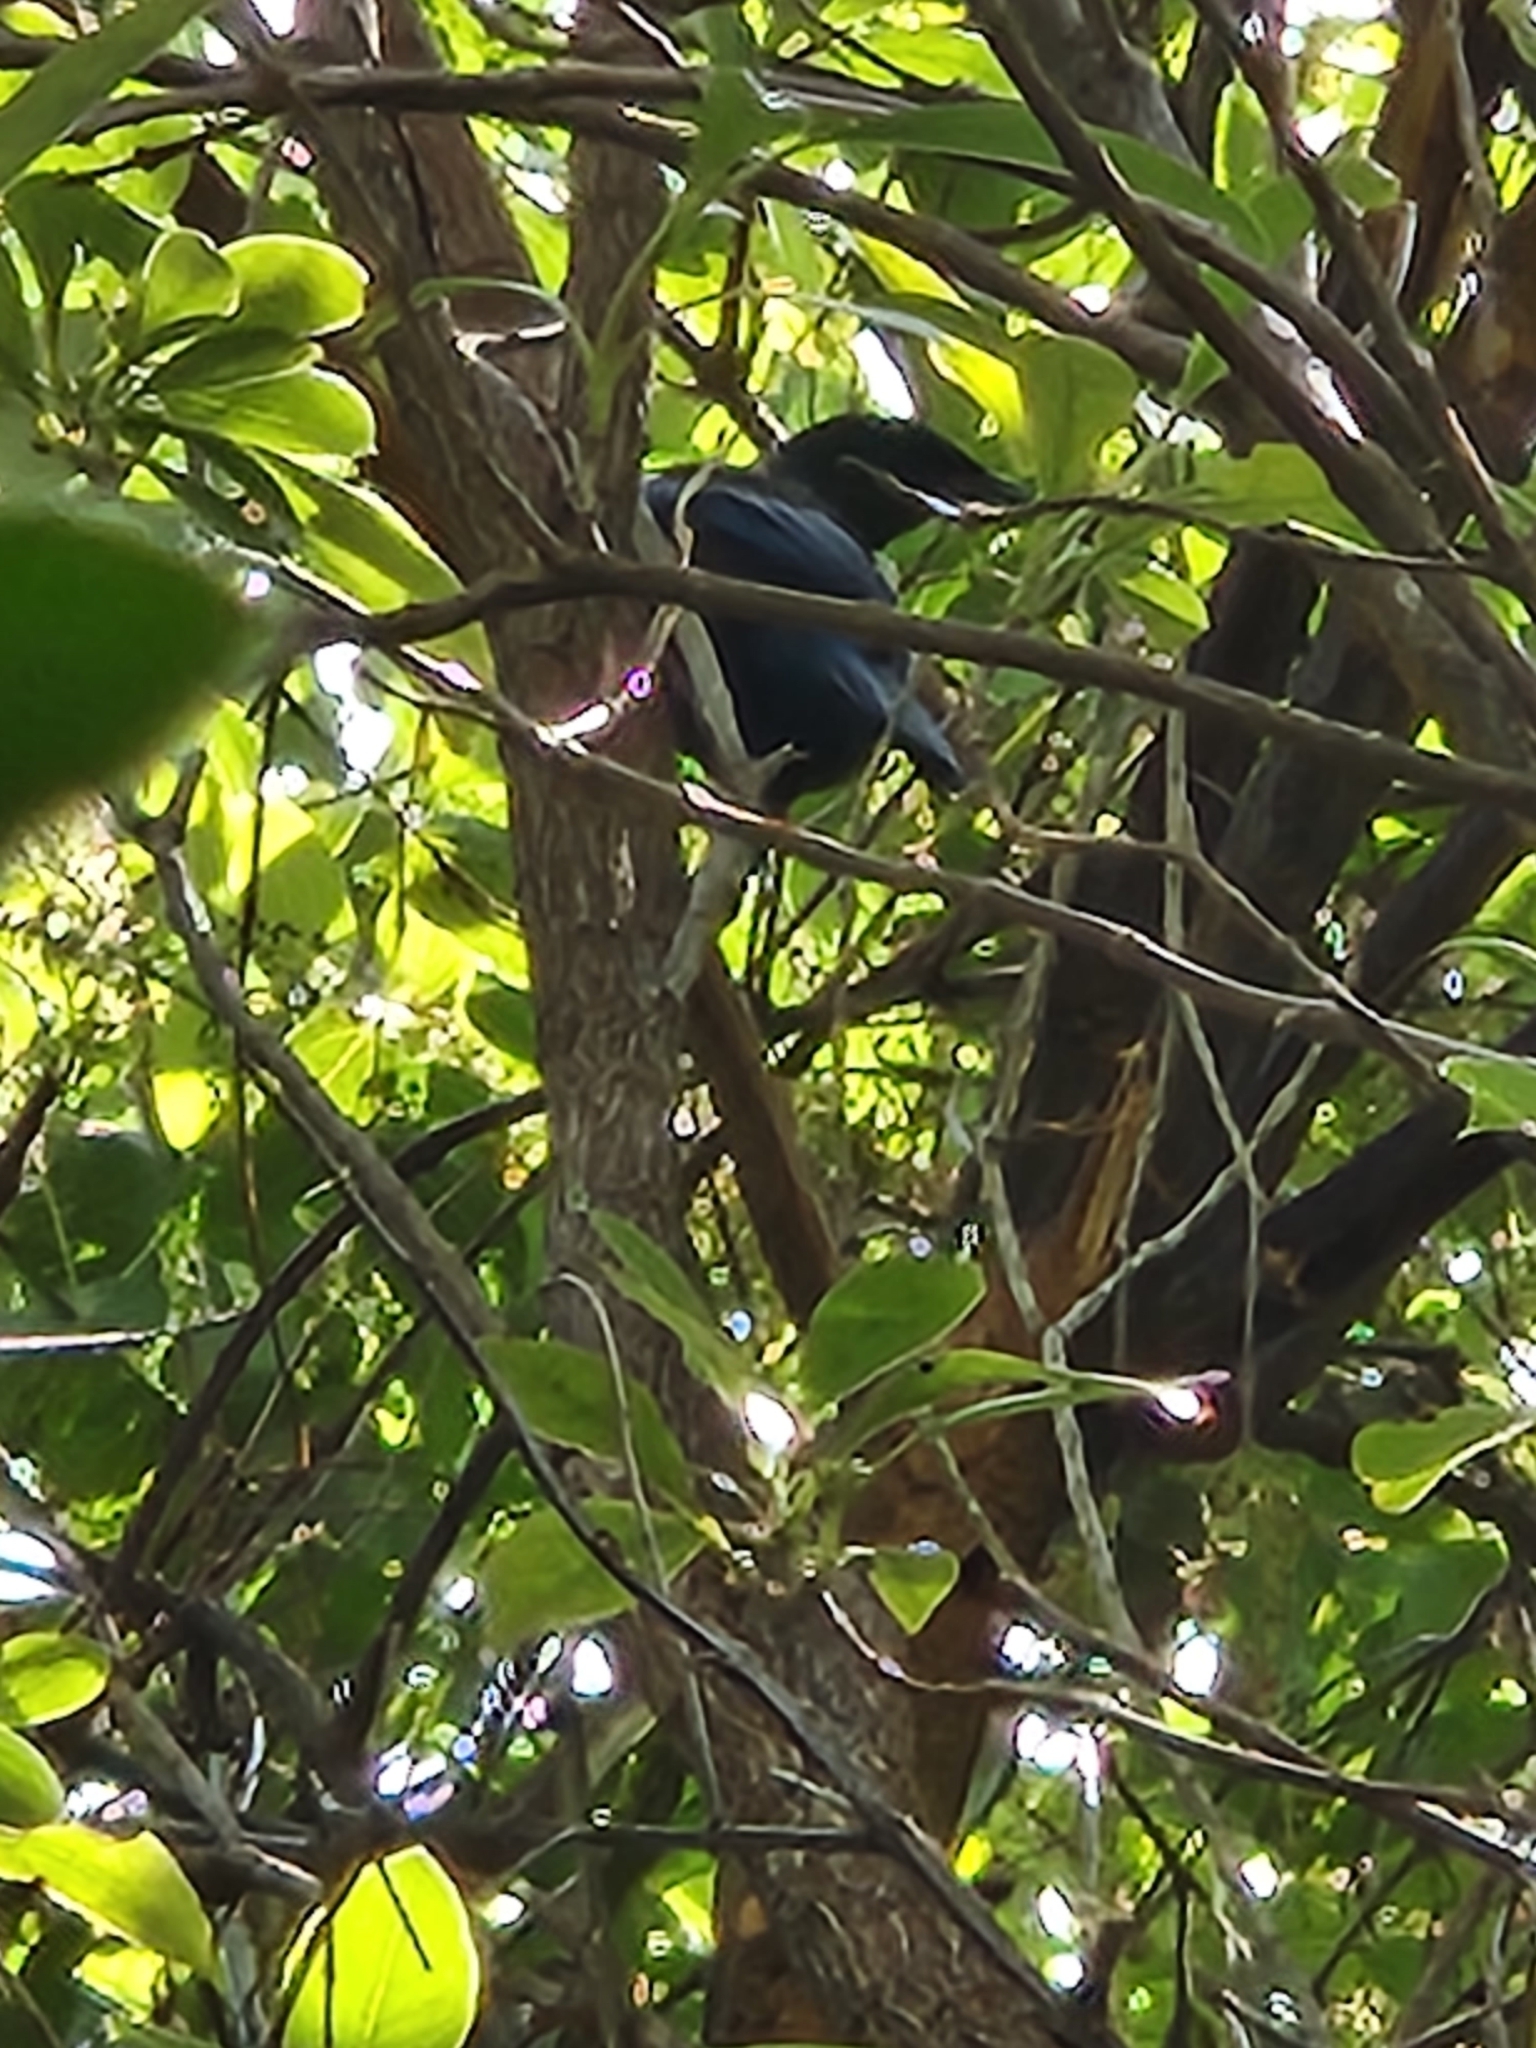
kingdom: Animalia
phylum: Chordata
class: Aves
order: Passeriformes
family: Meliphagidae
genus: Prosthemadera
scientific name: Prosthemadera novaeseelandiae
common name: Tui
